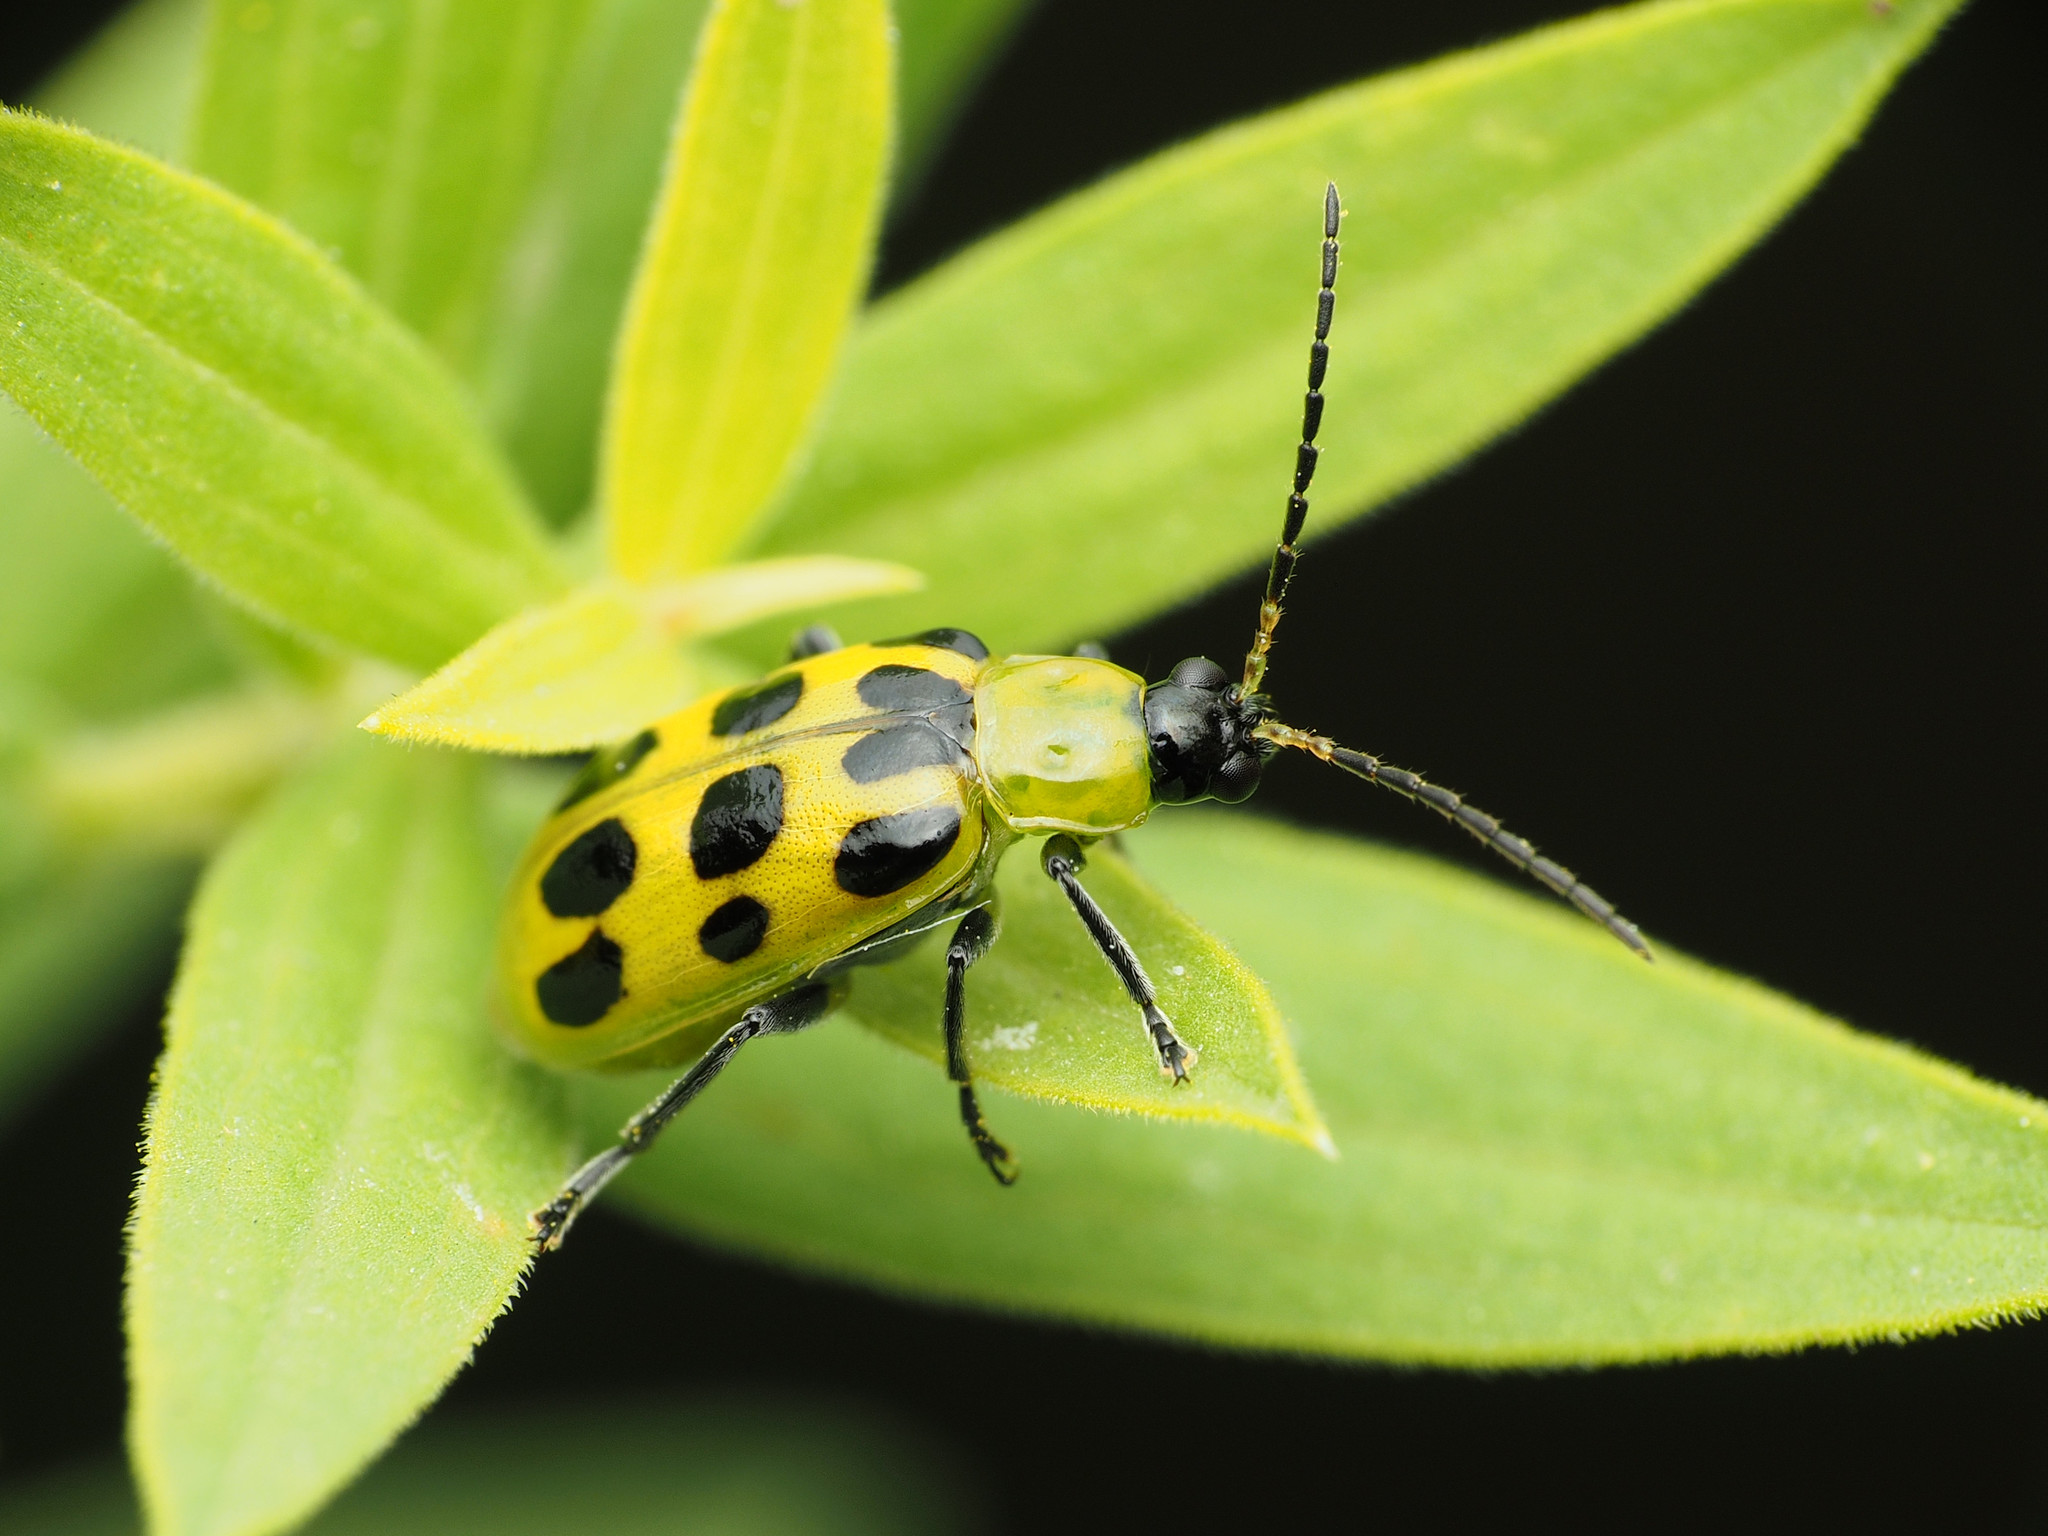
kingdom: Animalia
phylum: Arthropoda
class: Insecta
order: Coleoptera
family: Chrysomelidae
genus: Diabrotica
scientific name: Diabrotica undecimpunctata
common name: Spotted cucumber beetle
